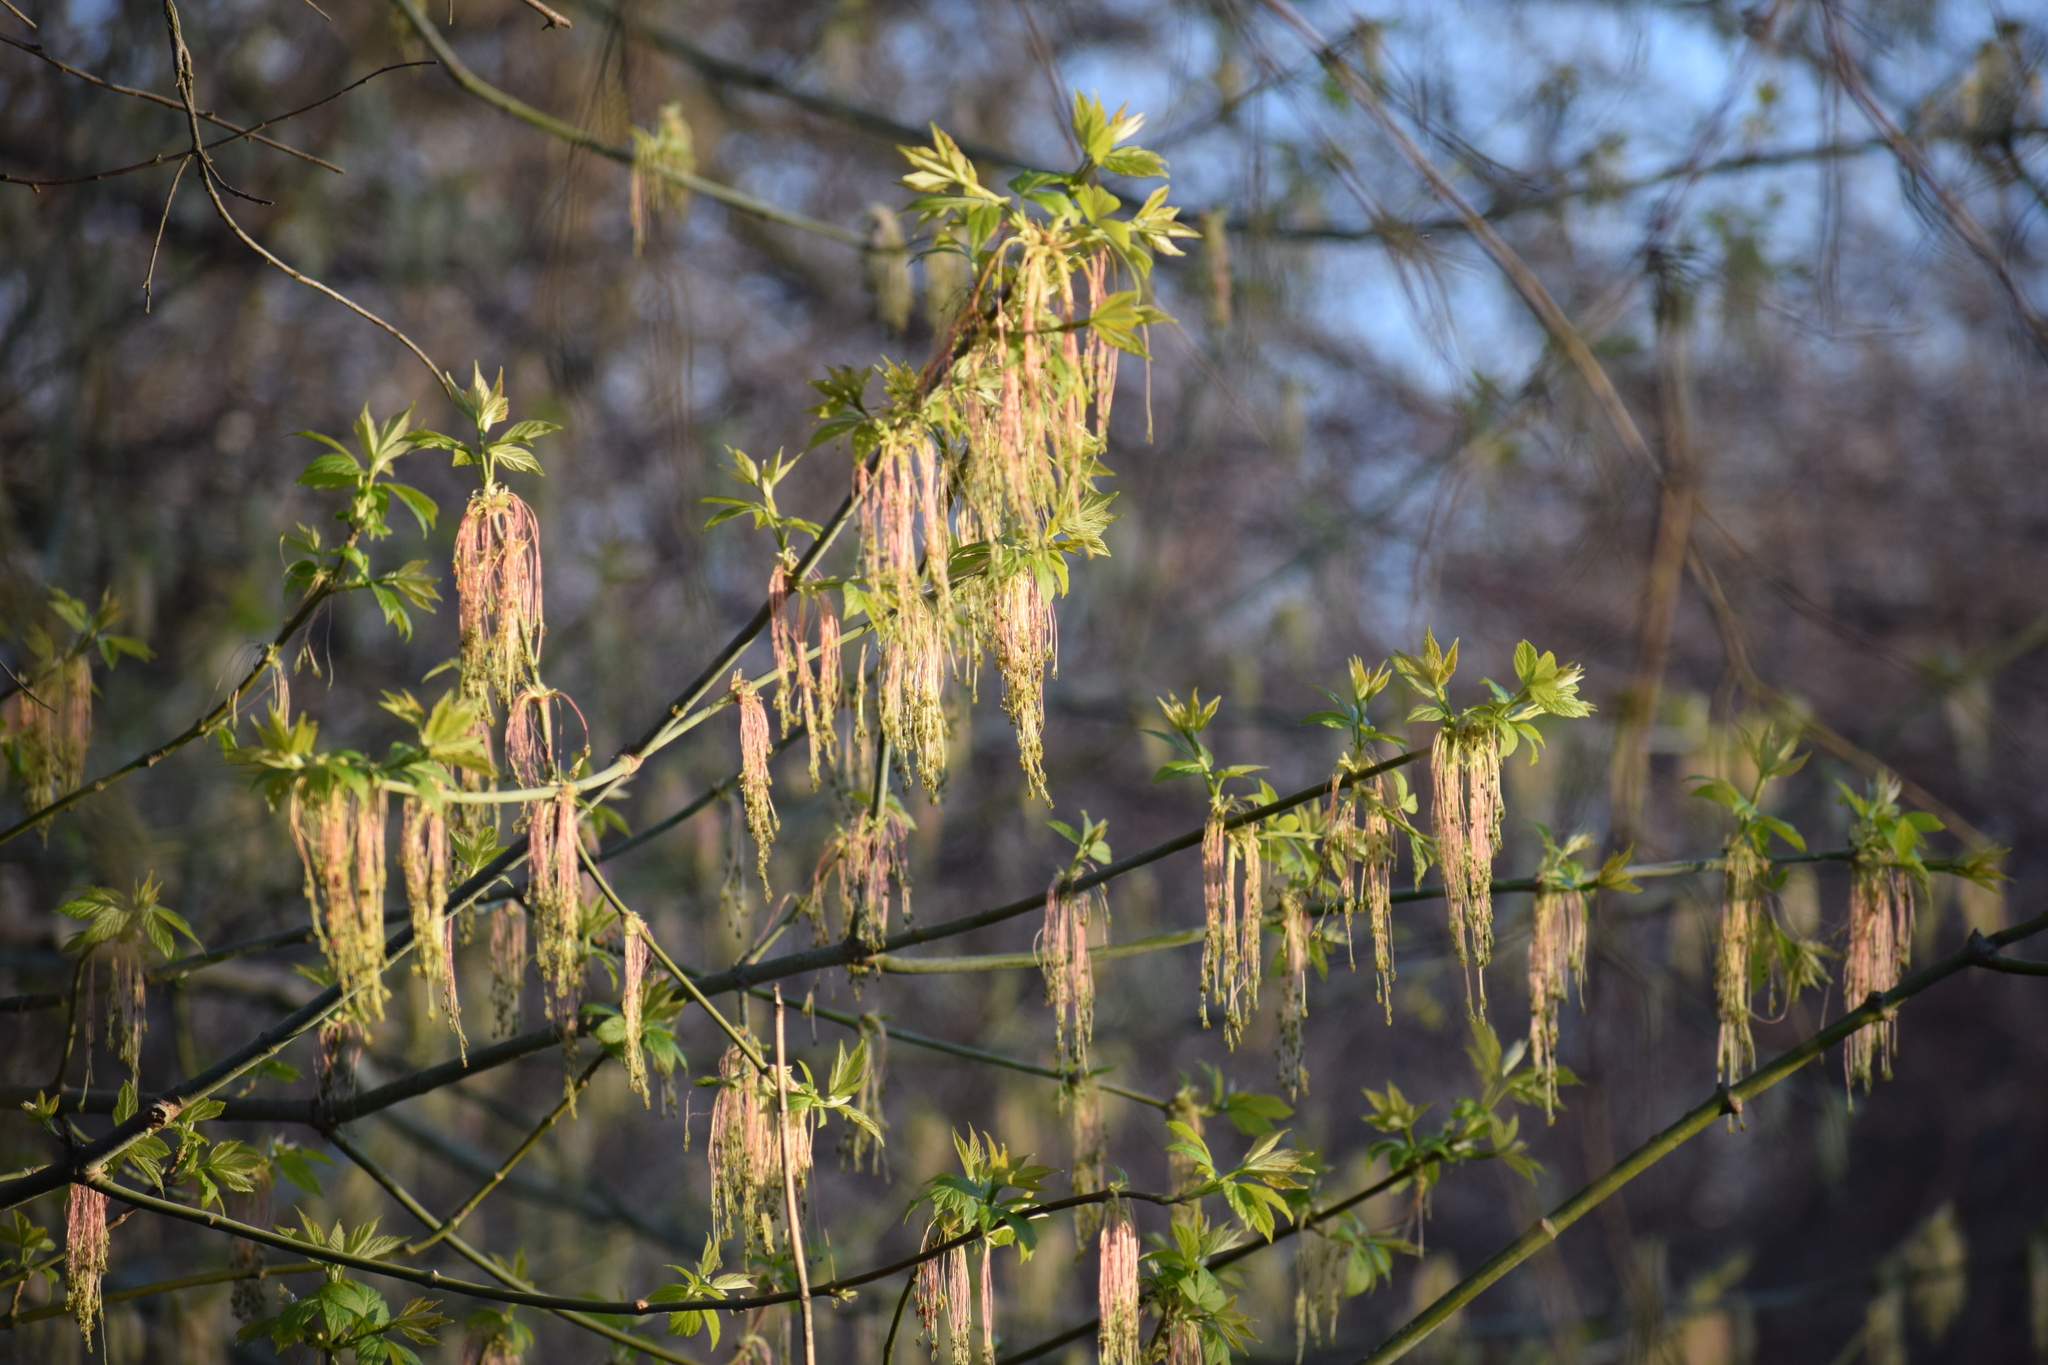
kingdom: Plantae
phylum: Tracheophyta
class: Magnoliopsida
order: Sapindales
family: Sapindaceae
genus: Acer
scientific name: Acer negundo
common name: Ashleaf maple
